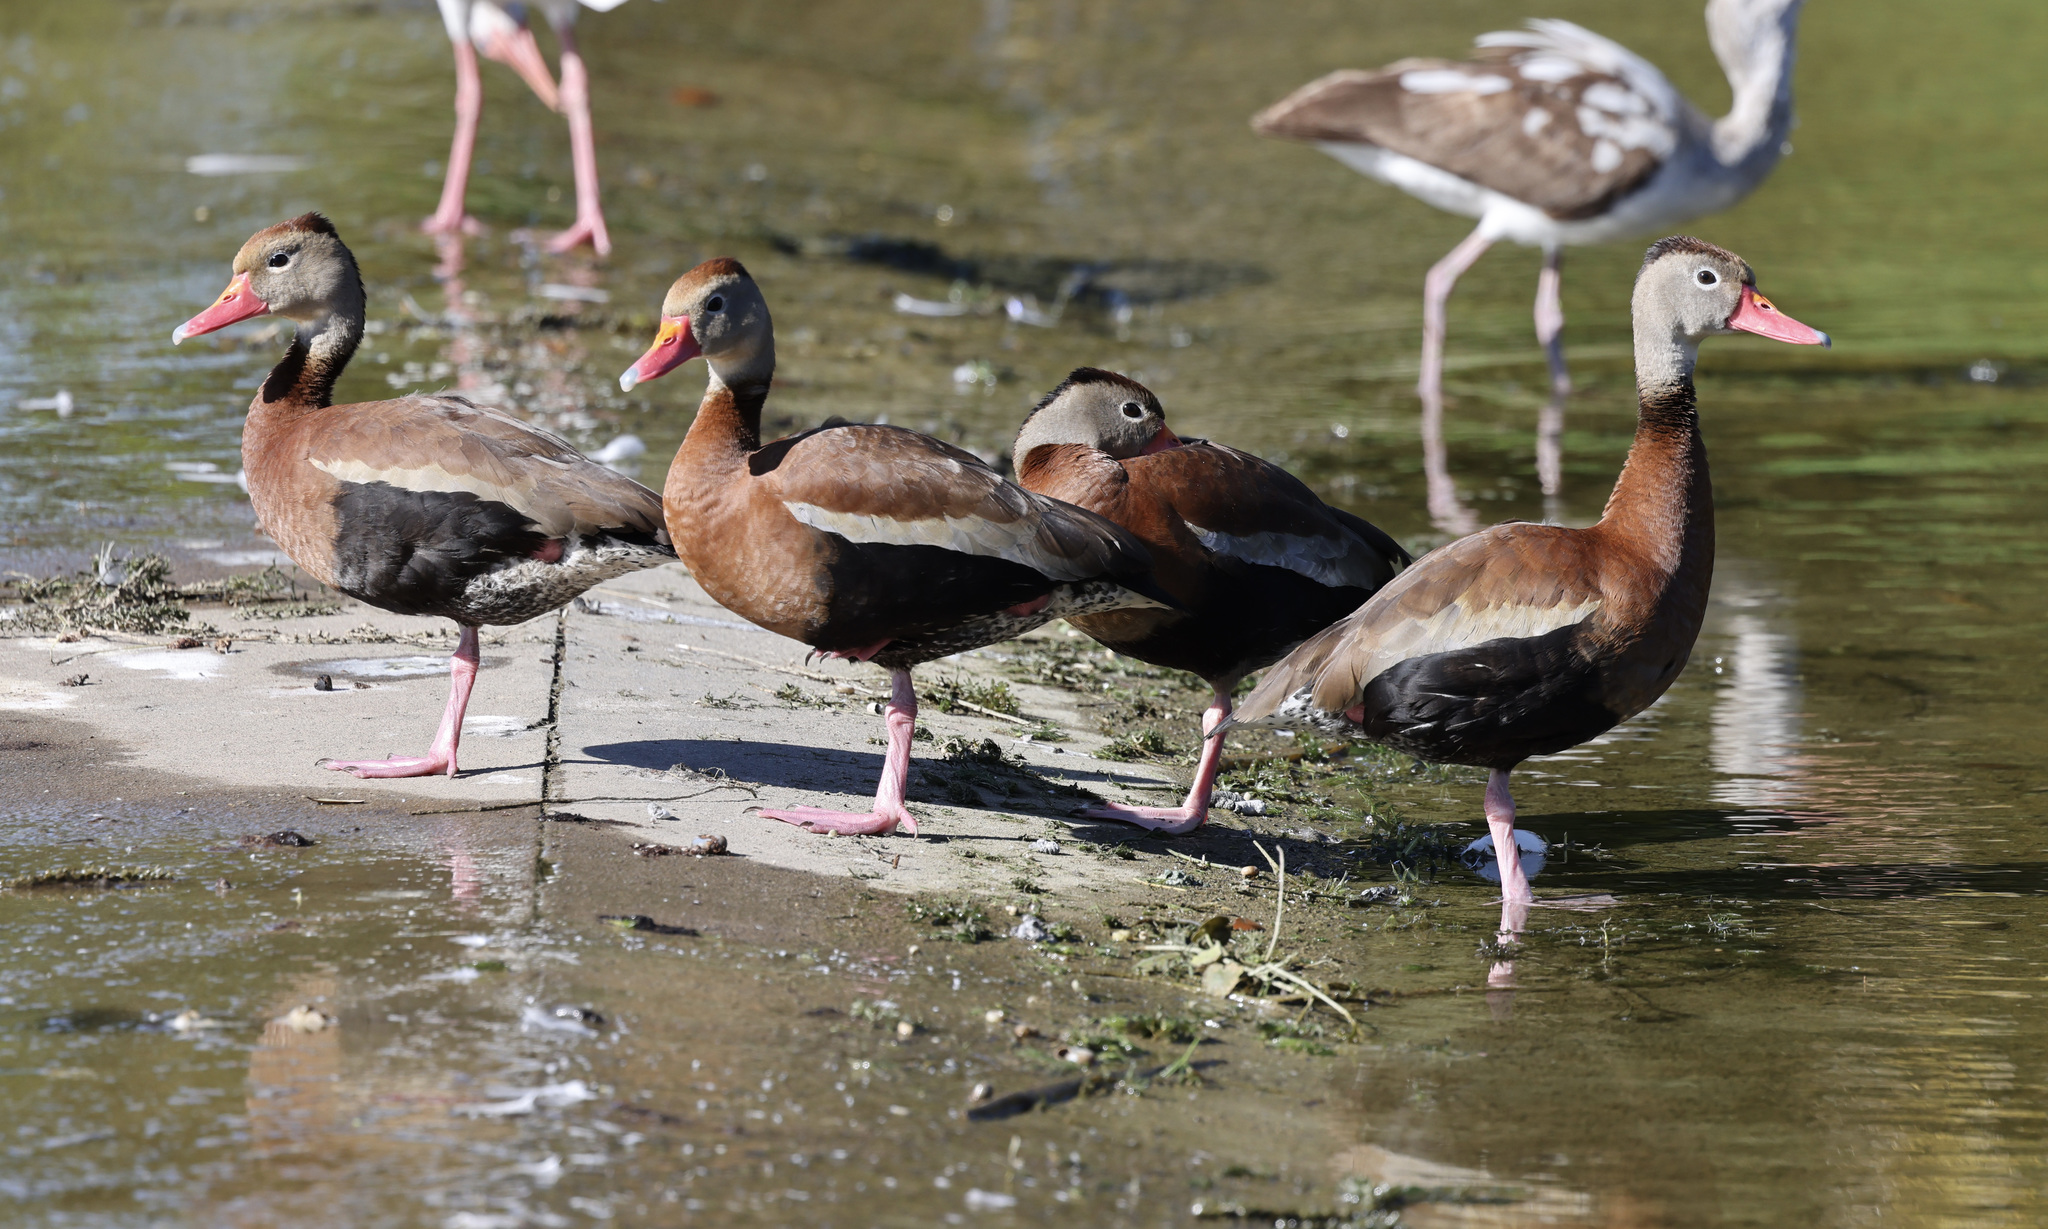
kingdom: Animalia
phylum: Chordata
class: Aves
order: Anseriformes
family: Anatidae
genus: Dendrocygna
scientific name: Dendrocygna autumnalis
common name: Black-bellied whistling duck
